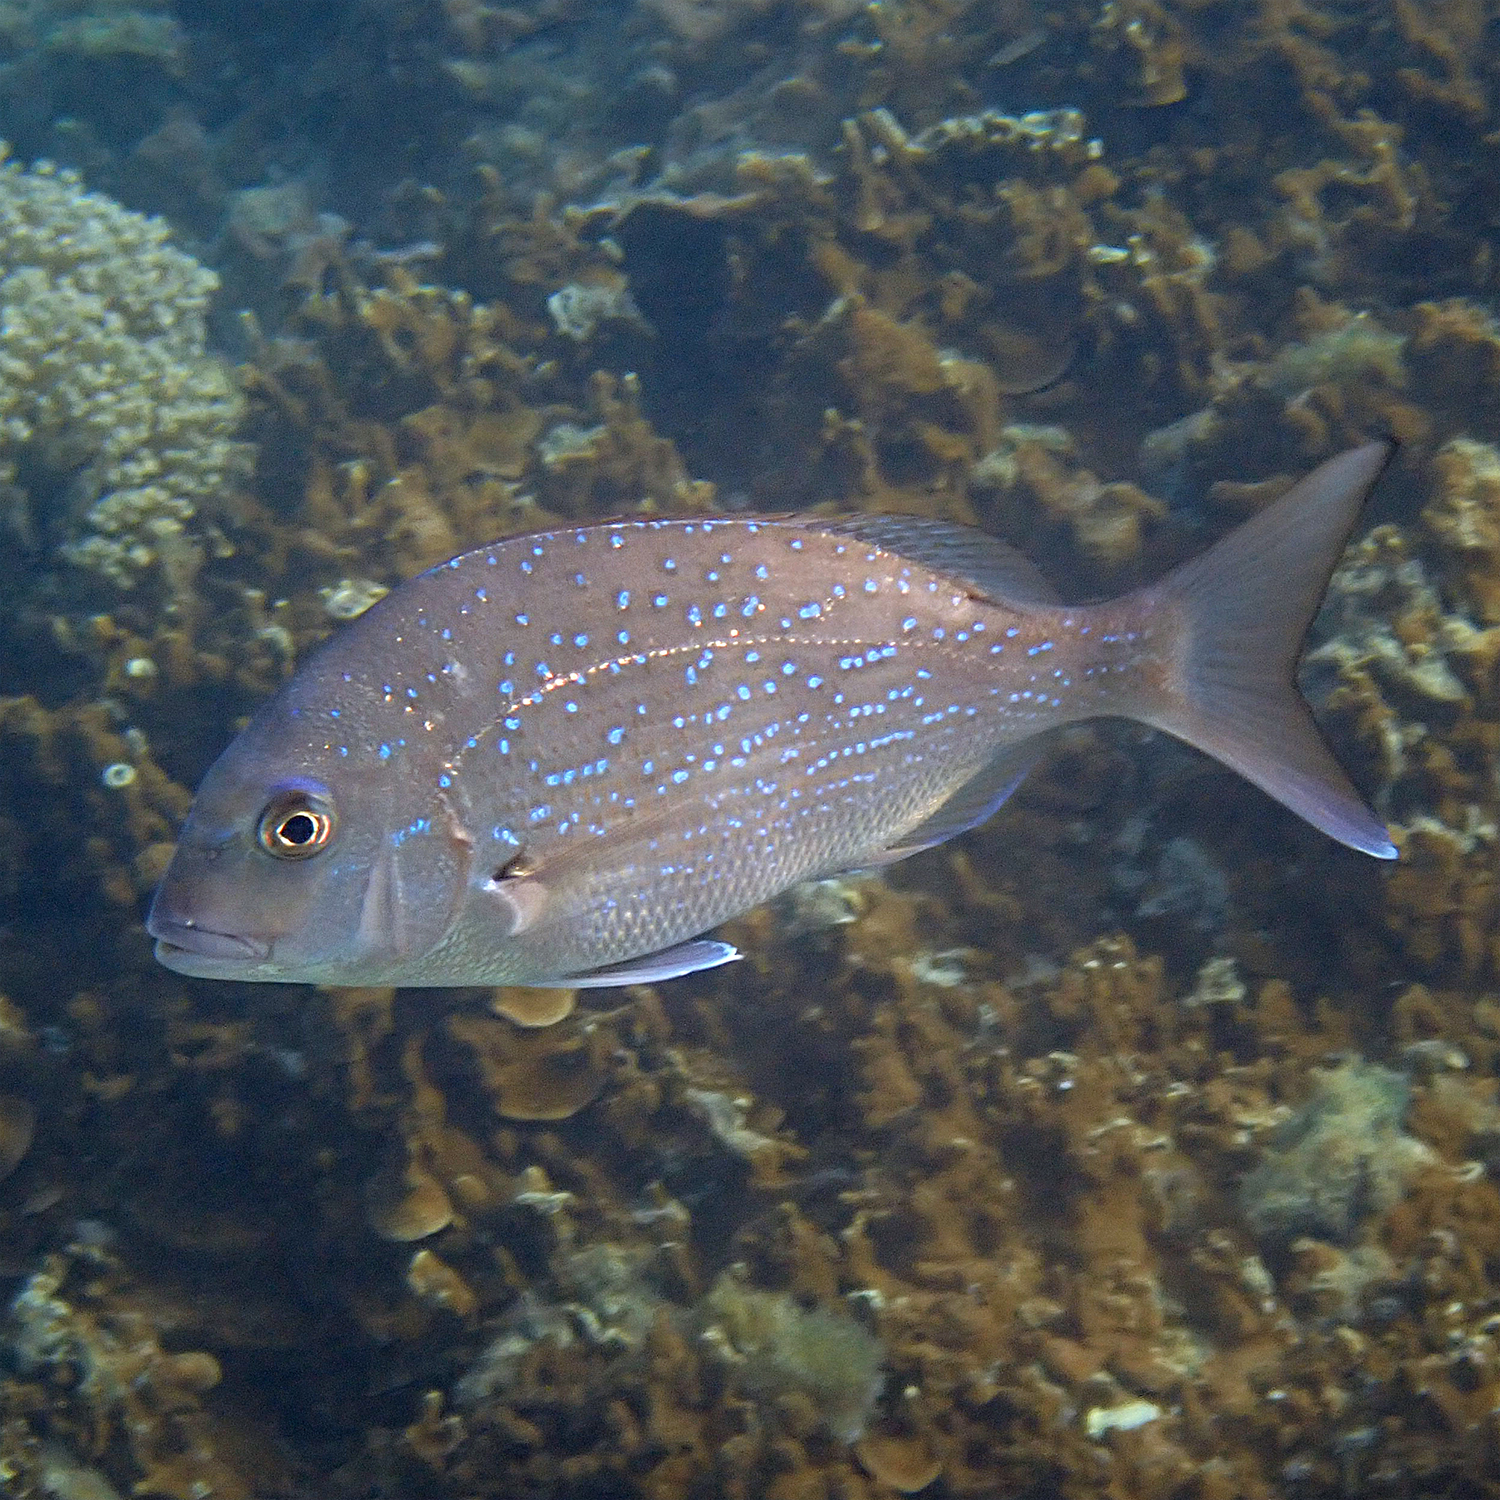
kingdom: Animalia
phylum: Chordata
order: Perciformes
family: Sparidae
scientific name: Sparidae
